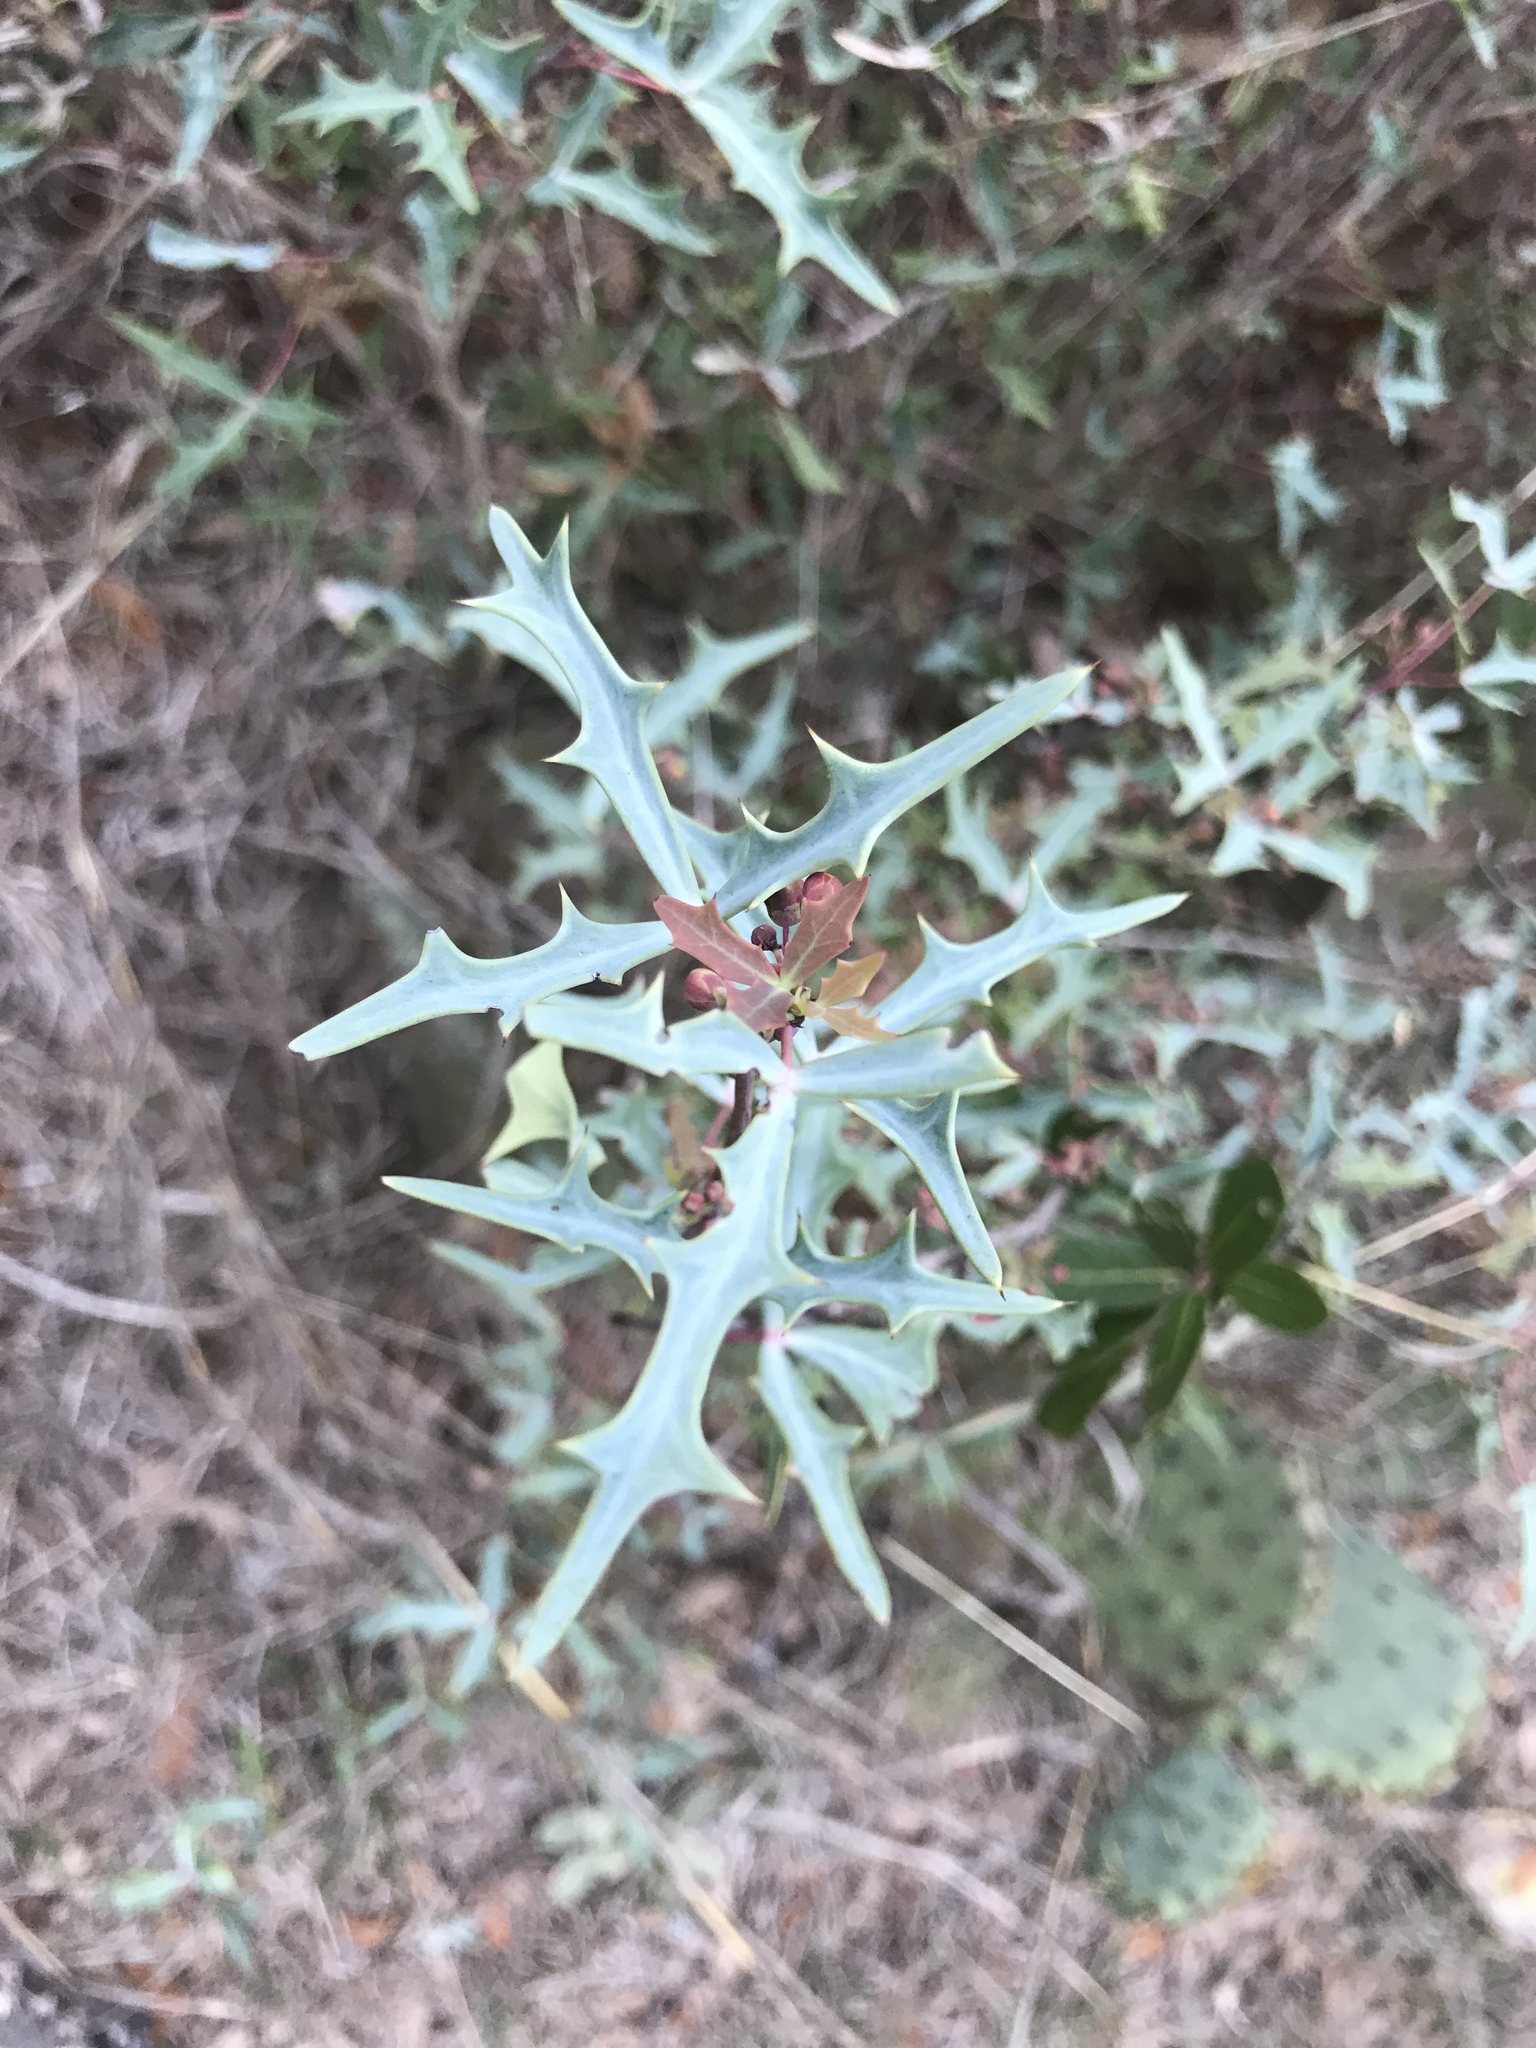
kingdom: Plantae
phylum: Tracheophyta
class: Magnoliopsida
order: Ranunculales
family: Berberidaceae
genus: Alloberberis
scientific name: Alloberberis trifoliolata
